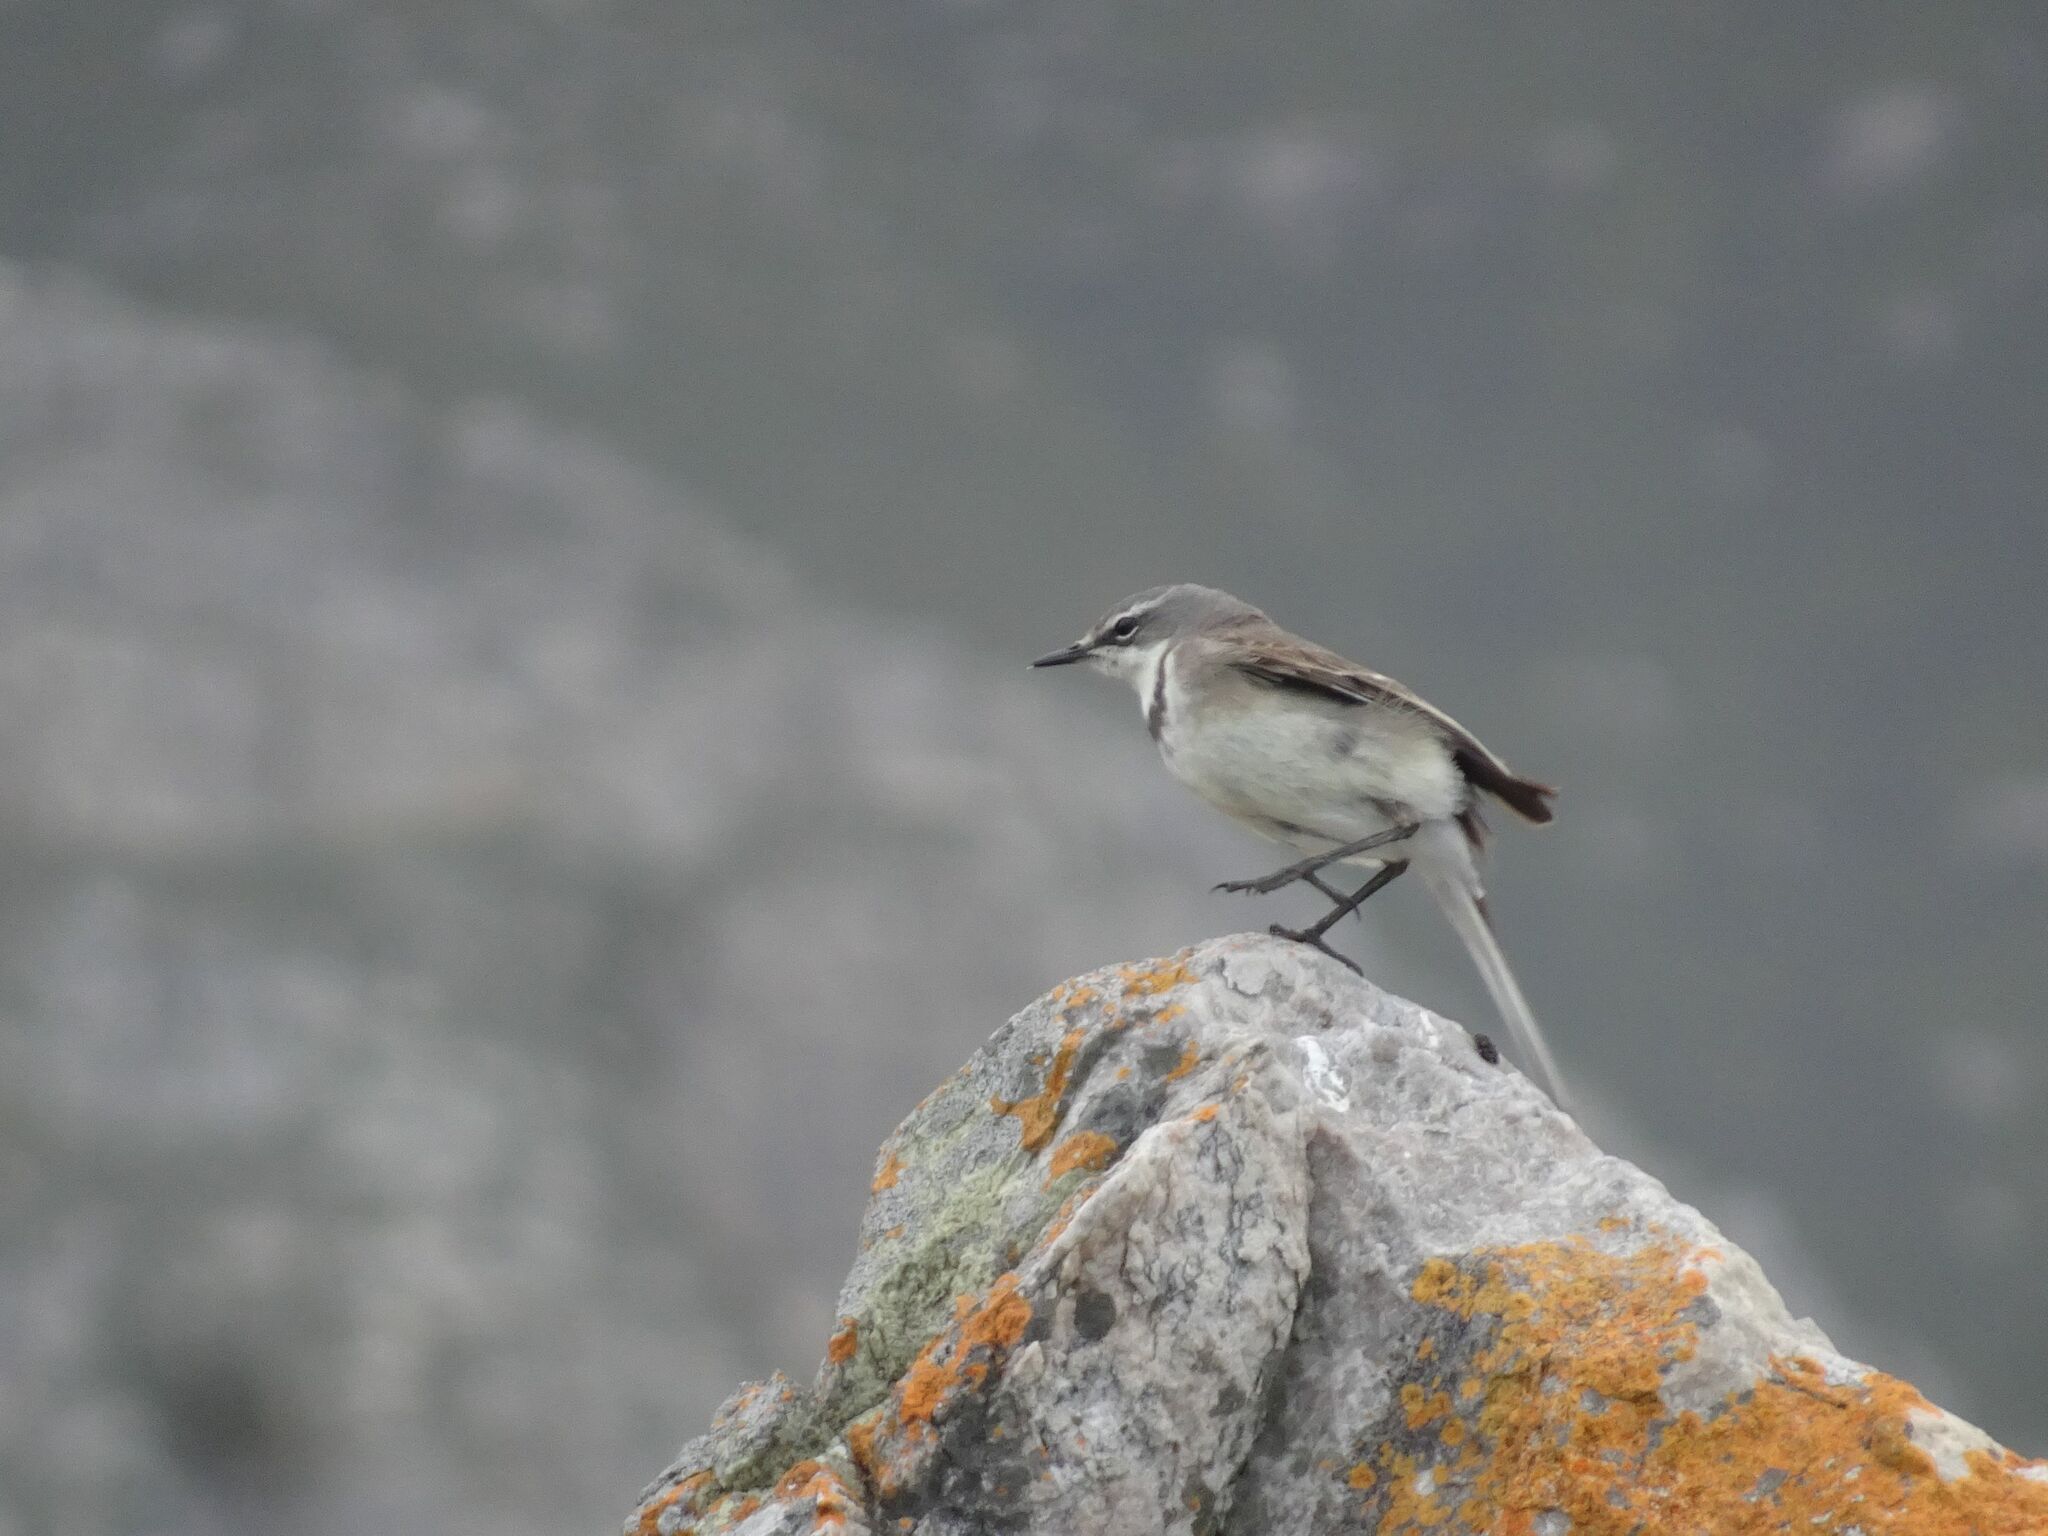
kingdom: Animalia
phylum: Chordata
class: Aves
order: Passeriformes
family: Motacillidae
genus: Motacilla
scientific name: Motacilla capensis
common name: Cape wagtail
